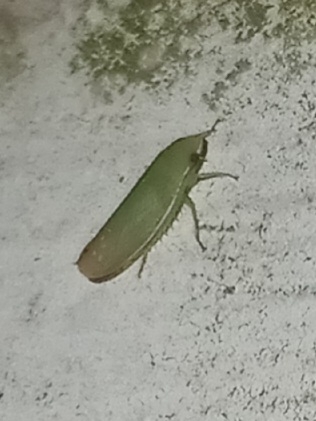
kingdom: Animalia
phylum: Arthropoda
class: Insecta
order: Hemiptera
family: Cicadellidae
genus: Memnonia
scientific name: Memnonia flavida
